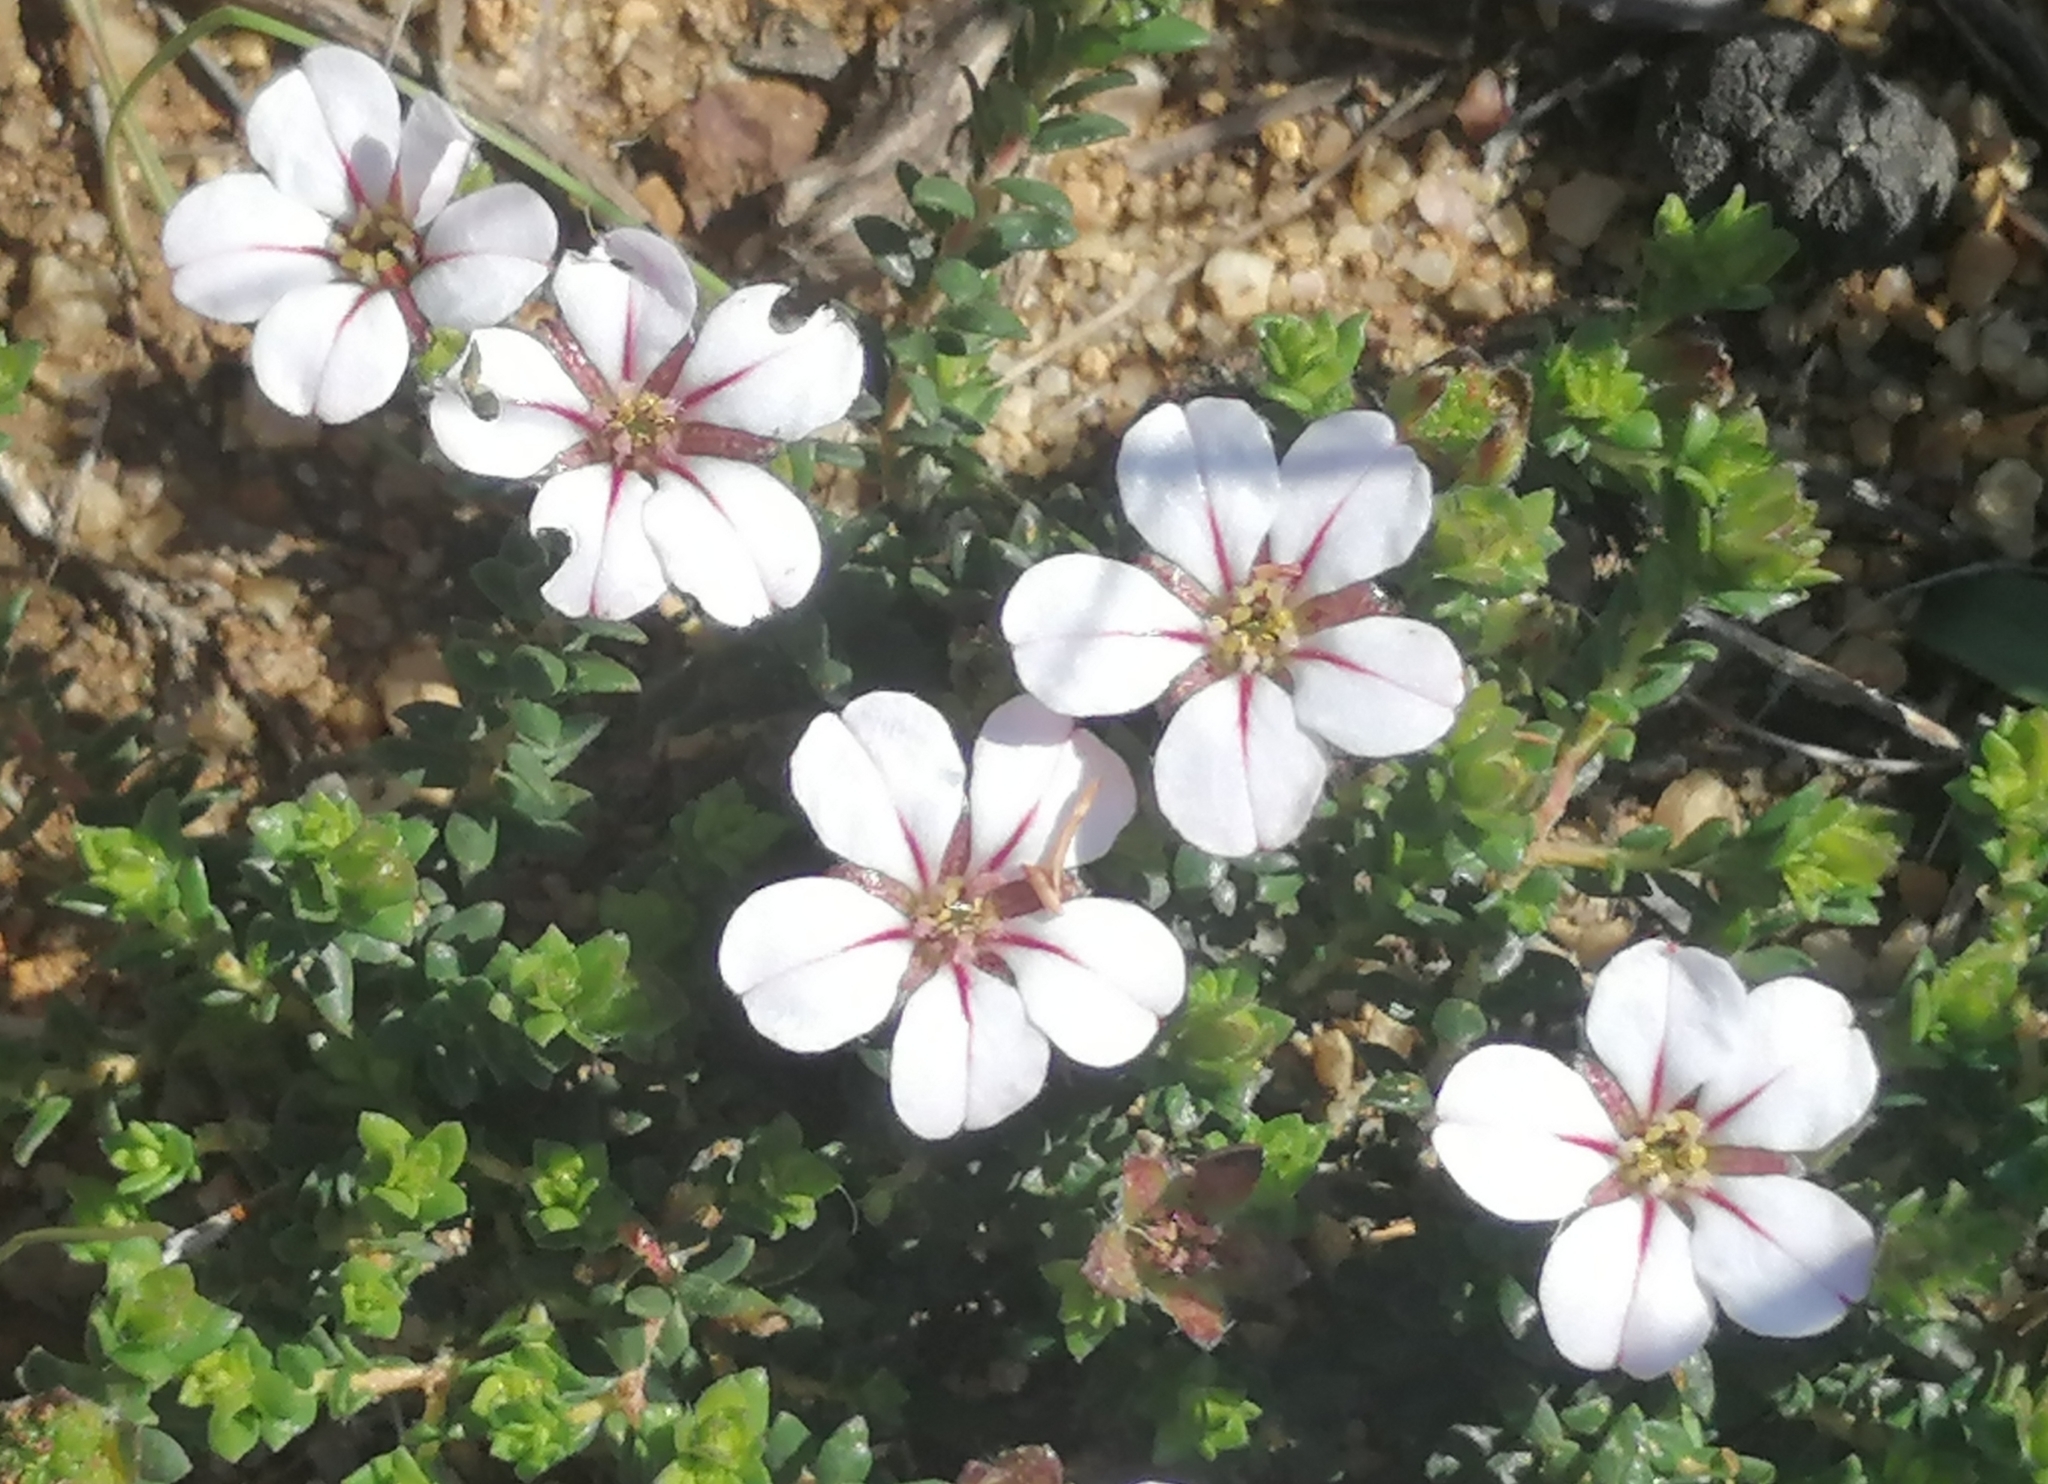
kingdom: Plantae
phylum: Tracheophyta
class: Magnoliopsida
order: Sapindales
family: Rutaceae
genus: Adenandra
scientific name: Adenandra uniflora
